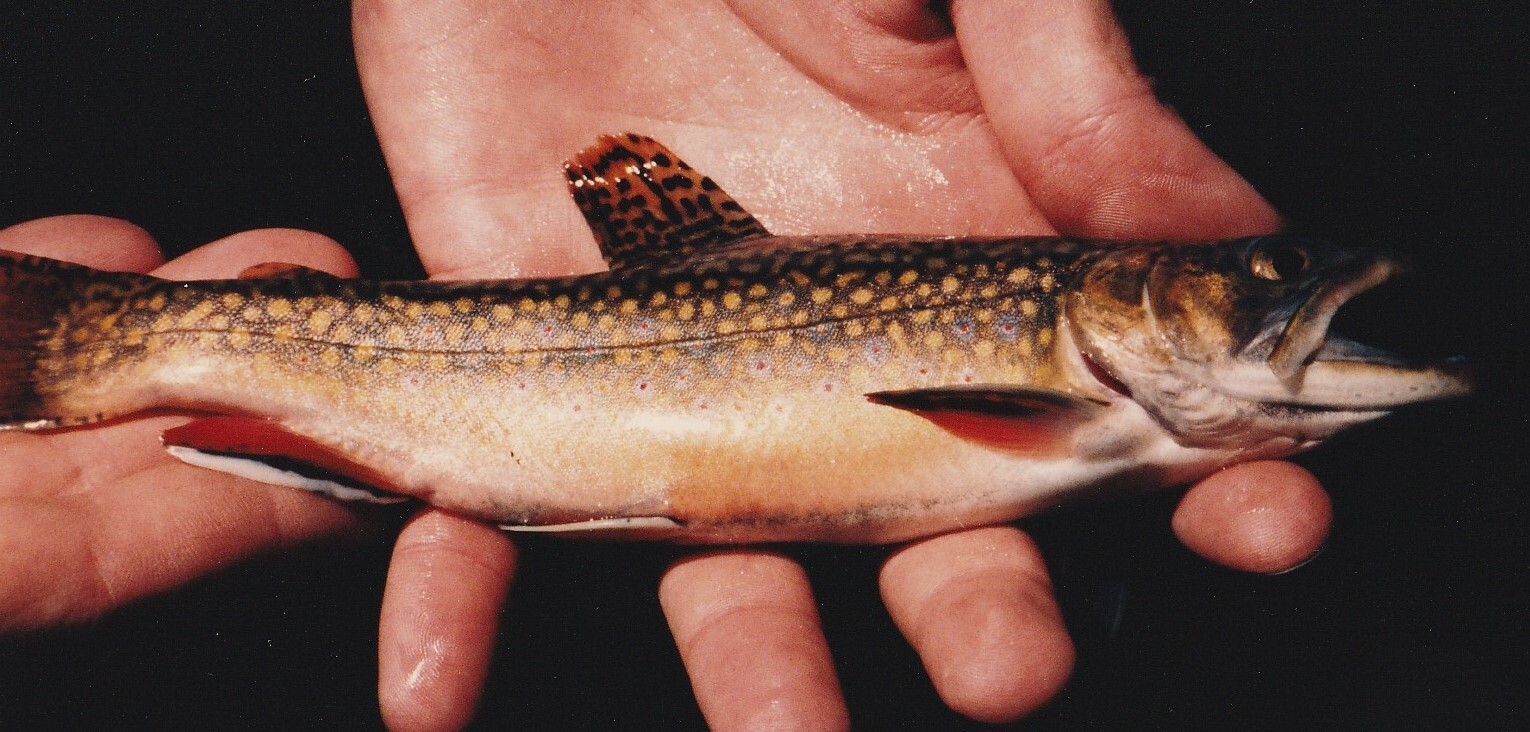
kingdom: Animalia
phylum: Chordata
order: Salmoniformes
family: Salmonidae
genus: Salvelinus
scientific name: Salvelinus fontinalis
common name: Brook trout
